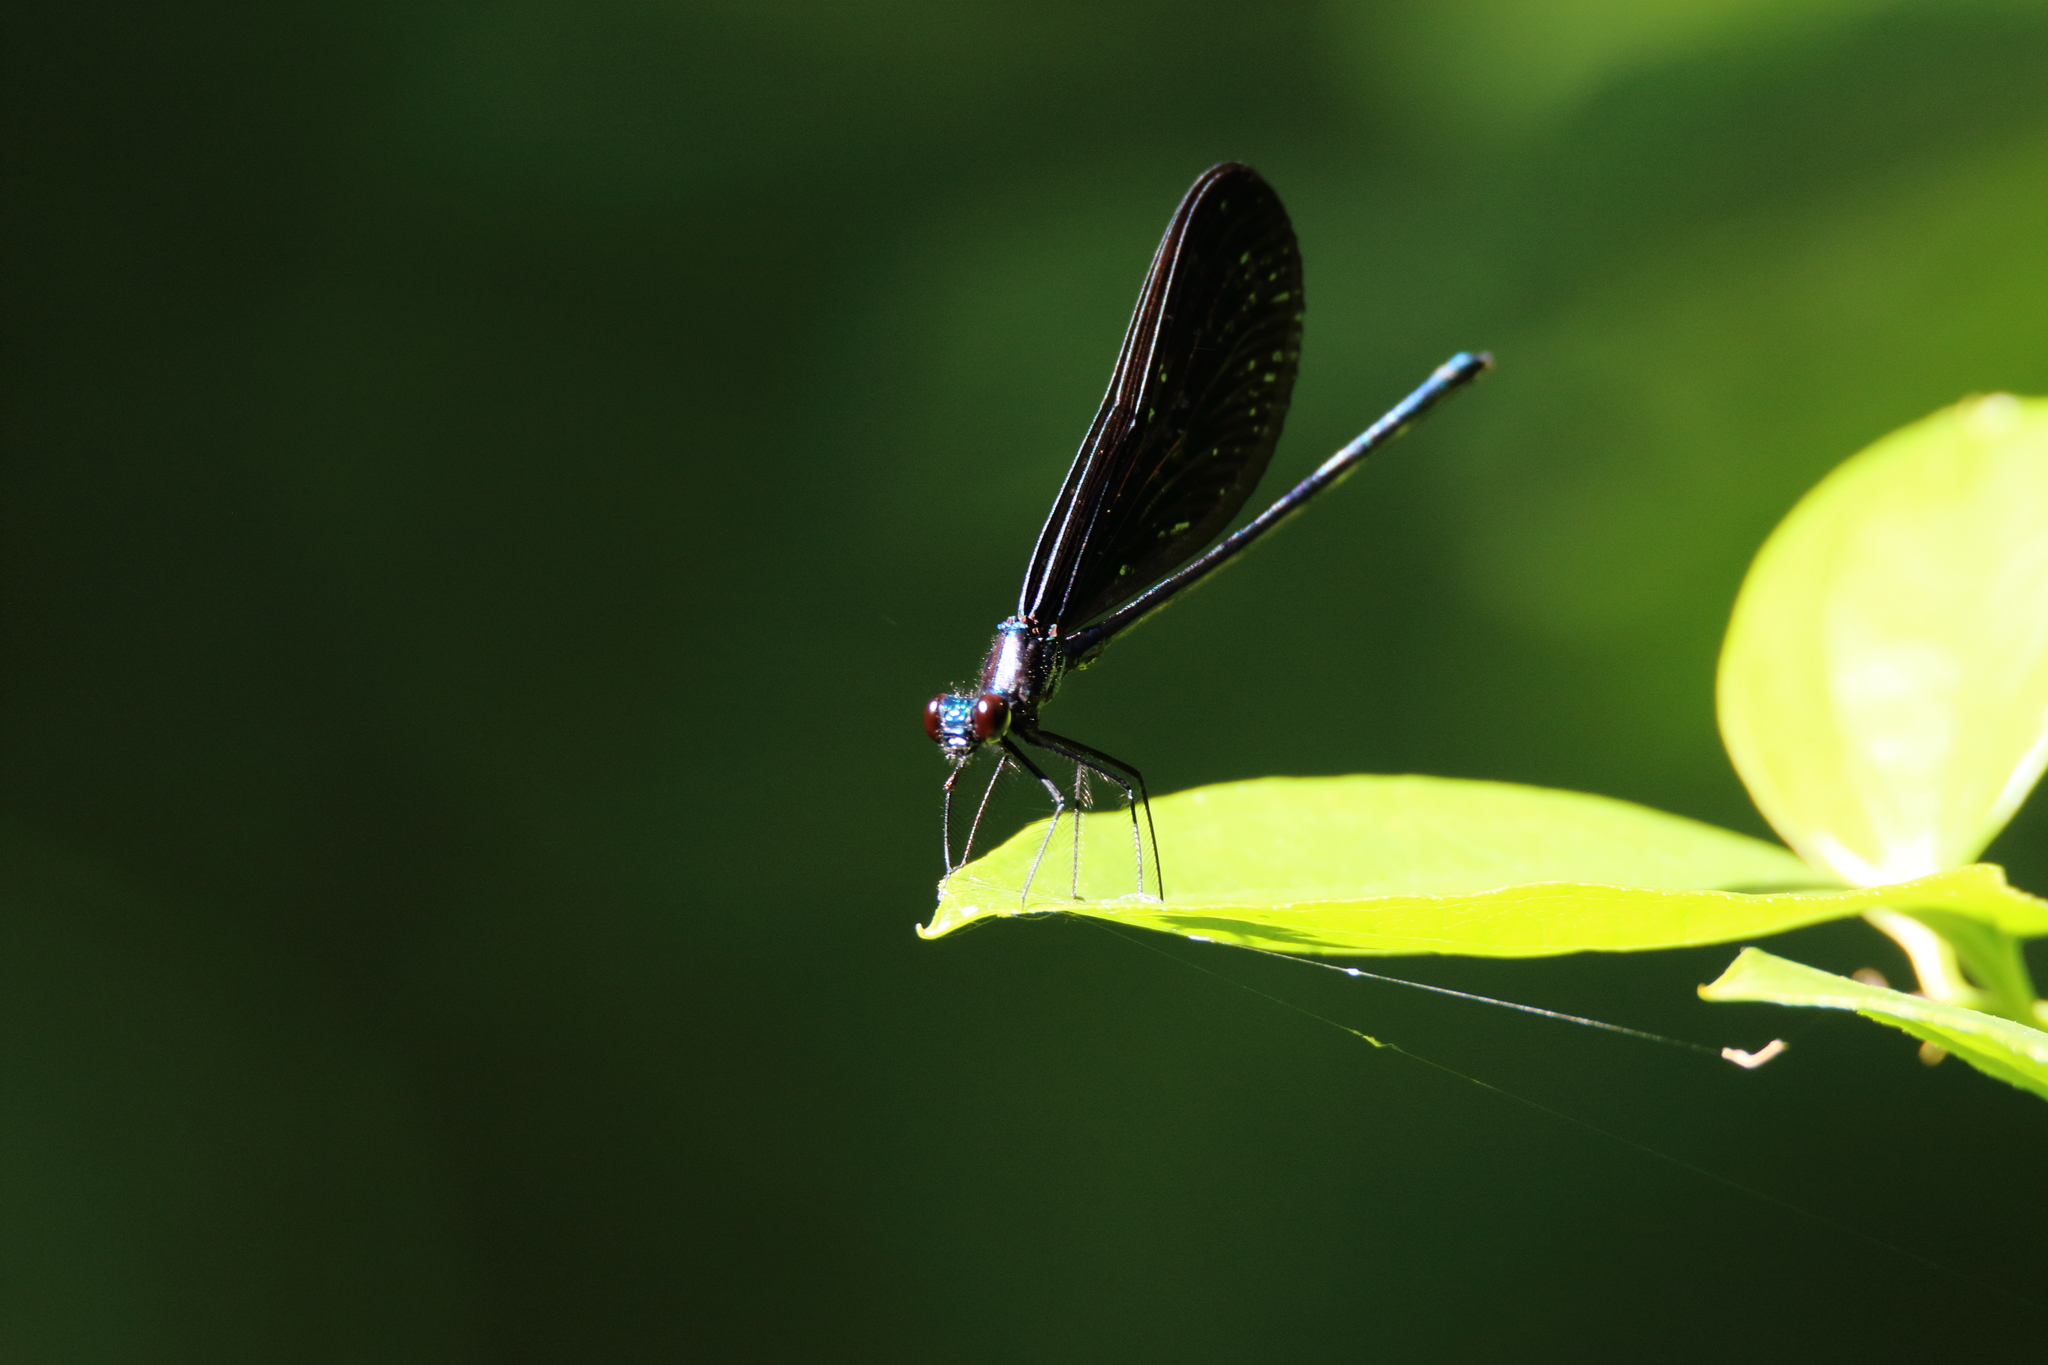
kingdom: Animalia
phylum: Arthropoda
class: Insecta
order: Odonata
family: Calopterygidae
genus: Calopteryx
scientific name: Calopteryx maculata
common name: Ebony jewelwing
